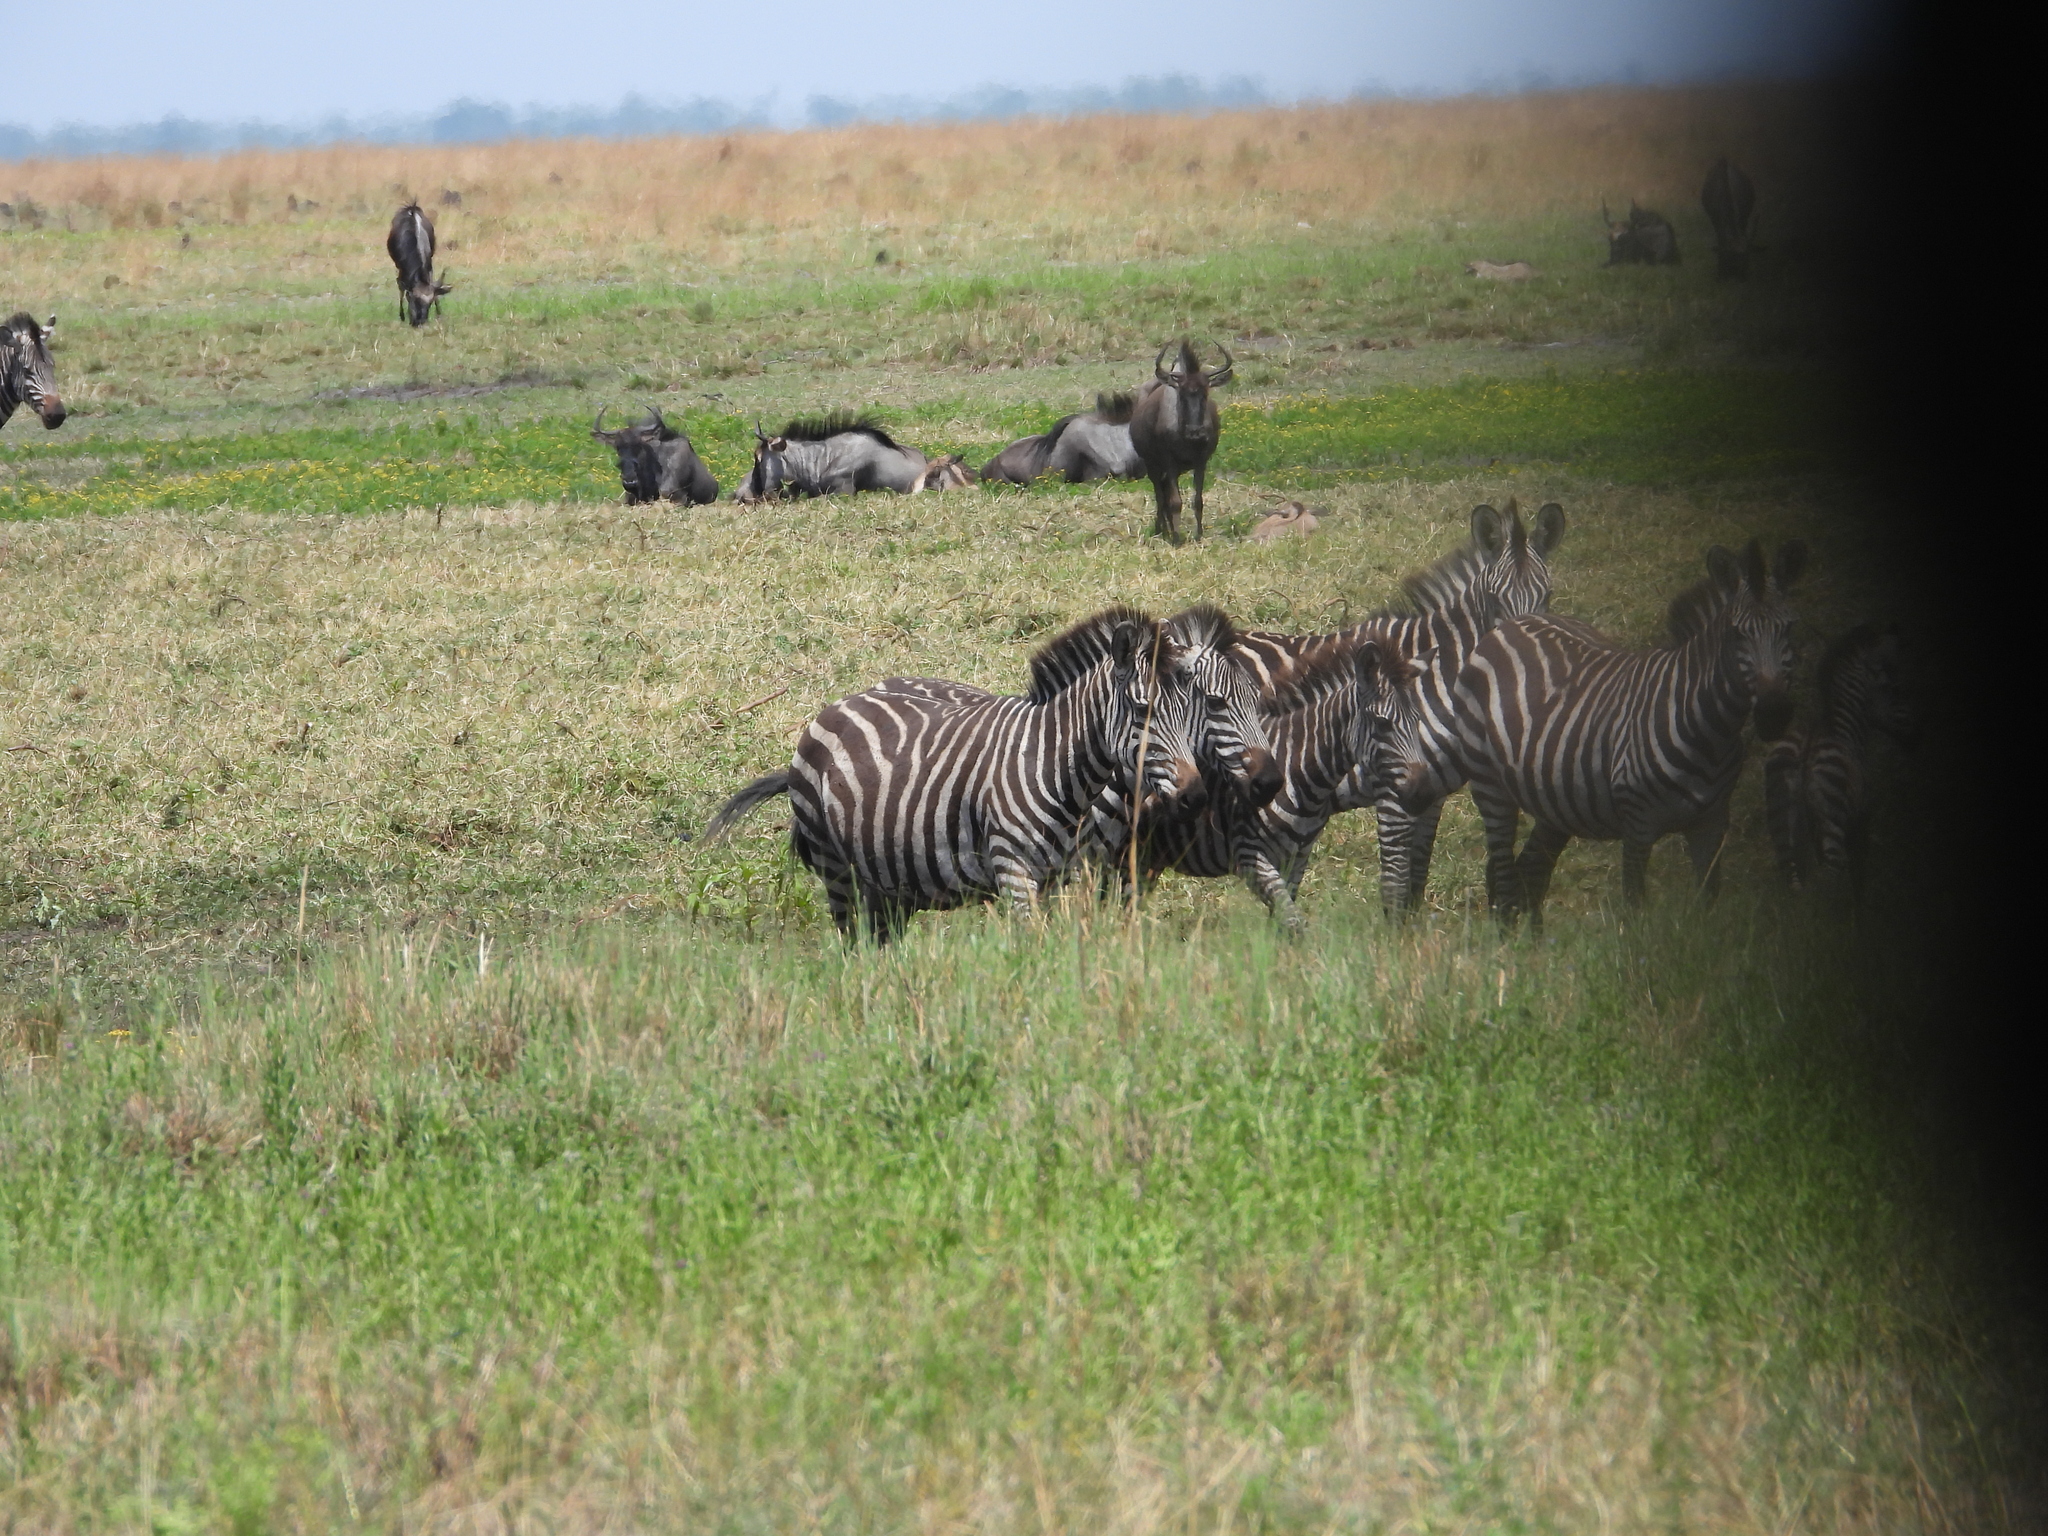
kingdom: Animalia
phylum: Chordata
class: Mammalia
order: Perissodactyla
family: Equidae
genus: Equus
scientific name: Equus quagga
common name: Plains zebra
